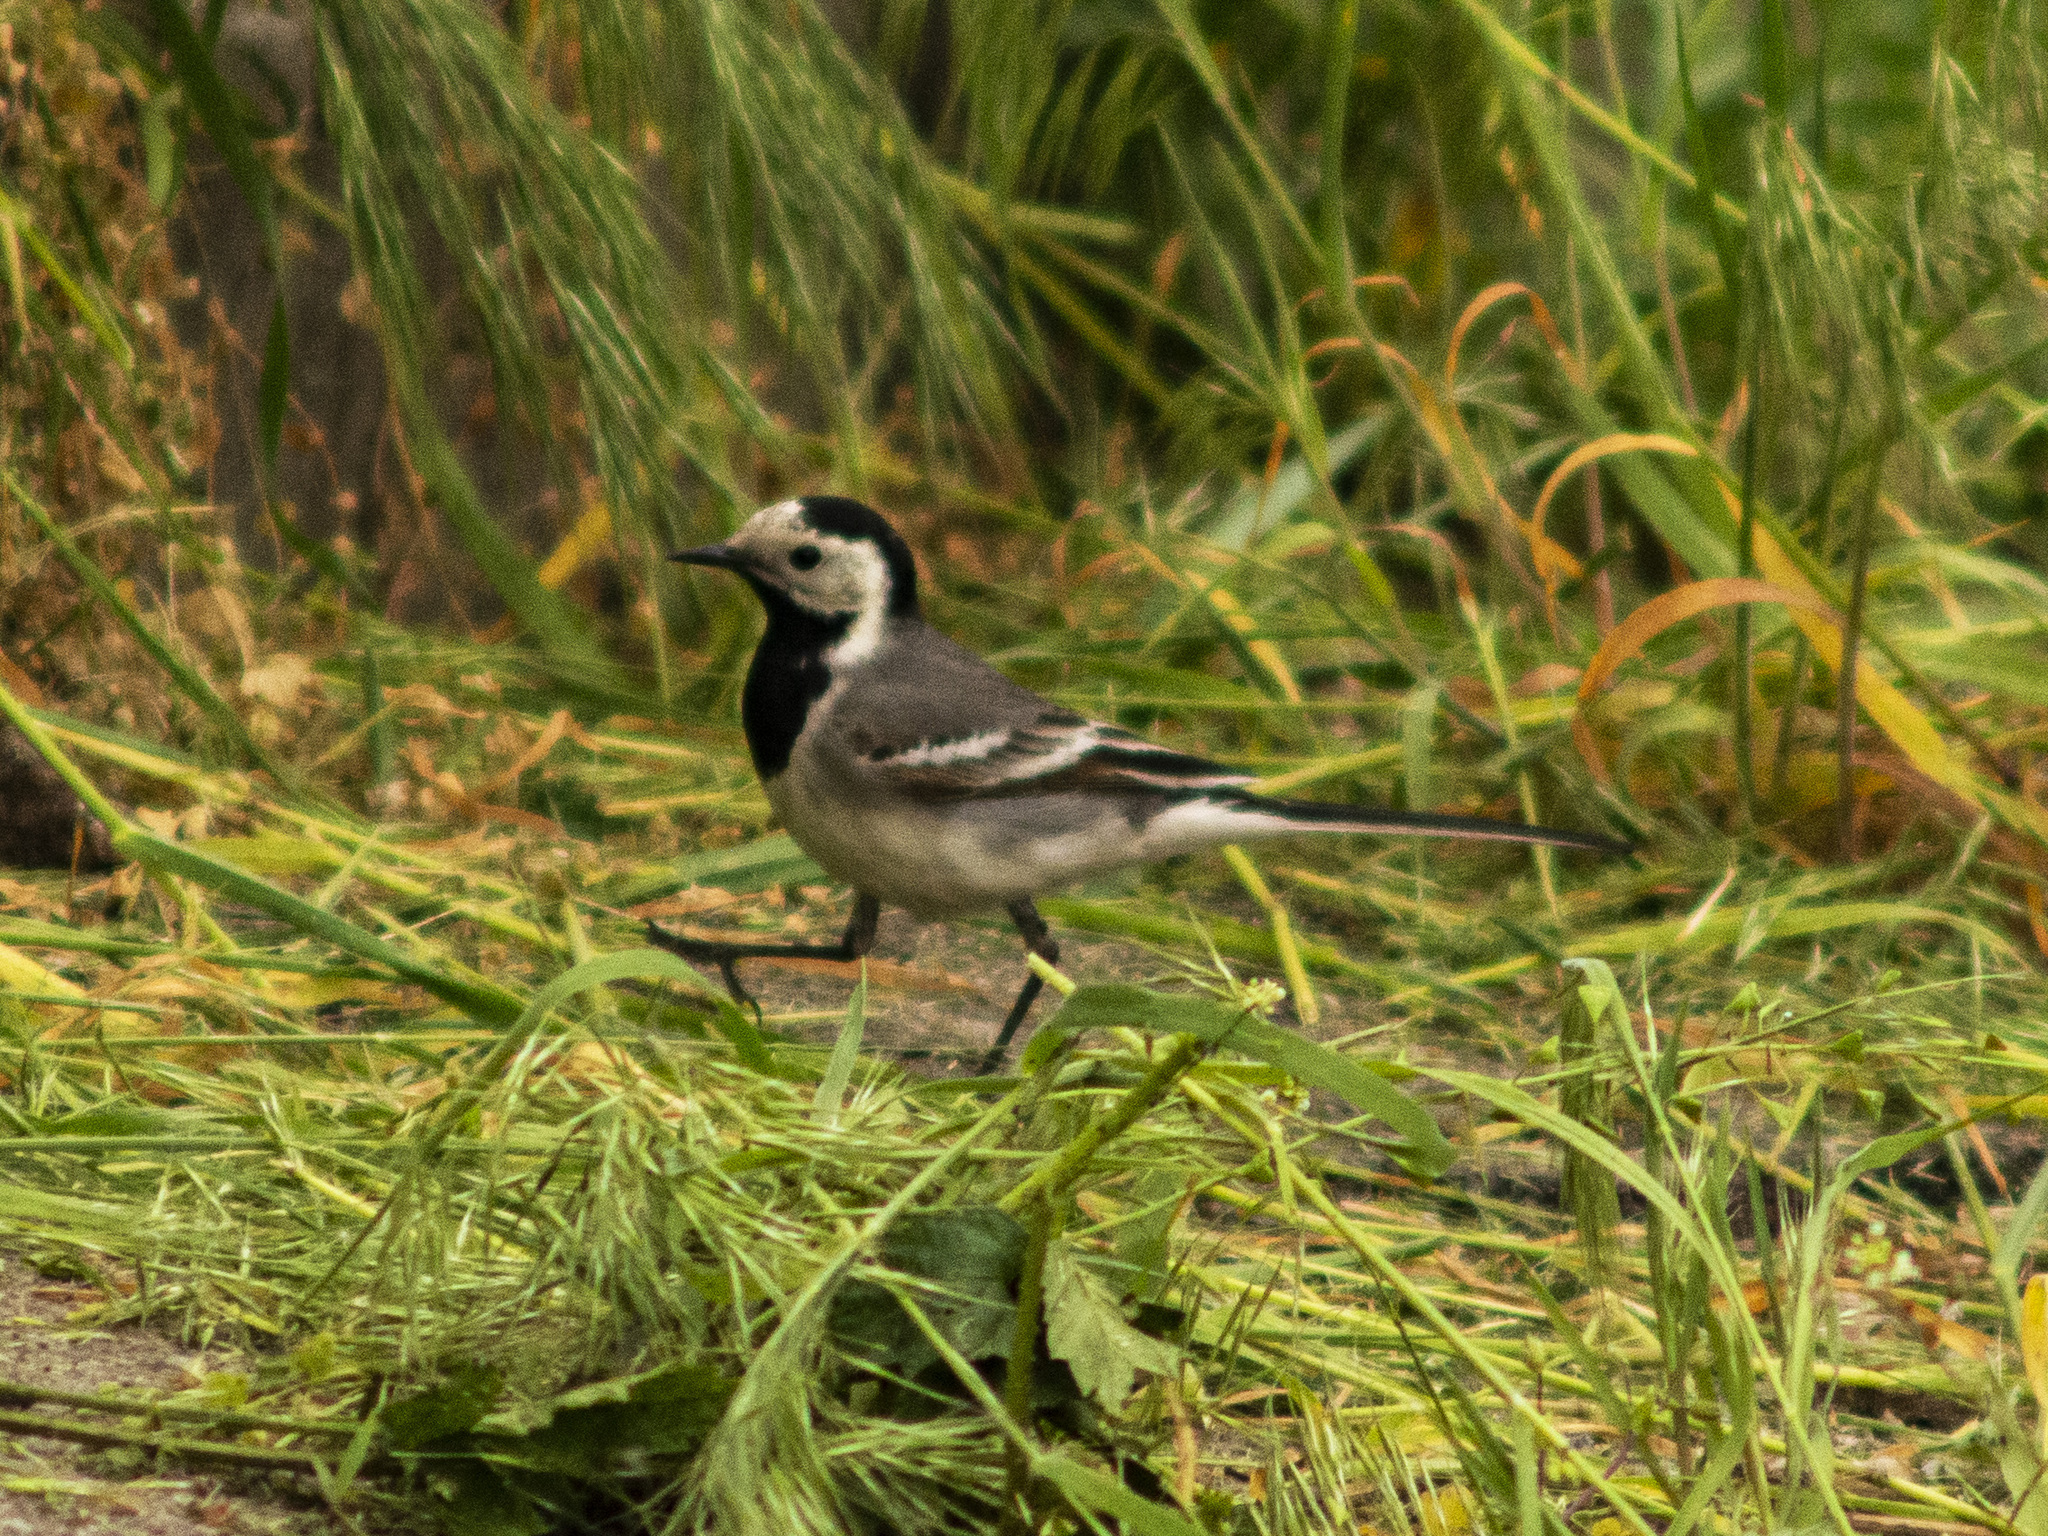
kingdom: Animalia
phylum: Chordata
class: Aves
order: Passeriformes
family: Motacillidae
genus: Motacilla
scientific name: Motacilla alba
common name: White wagtail
